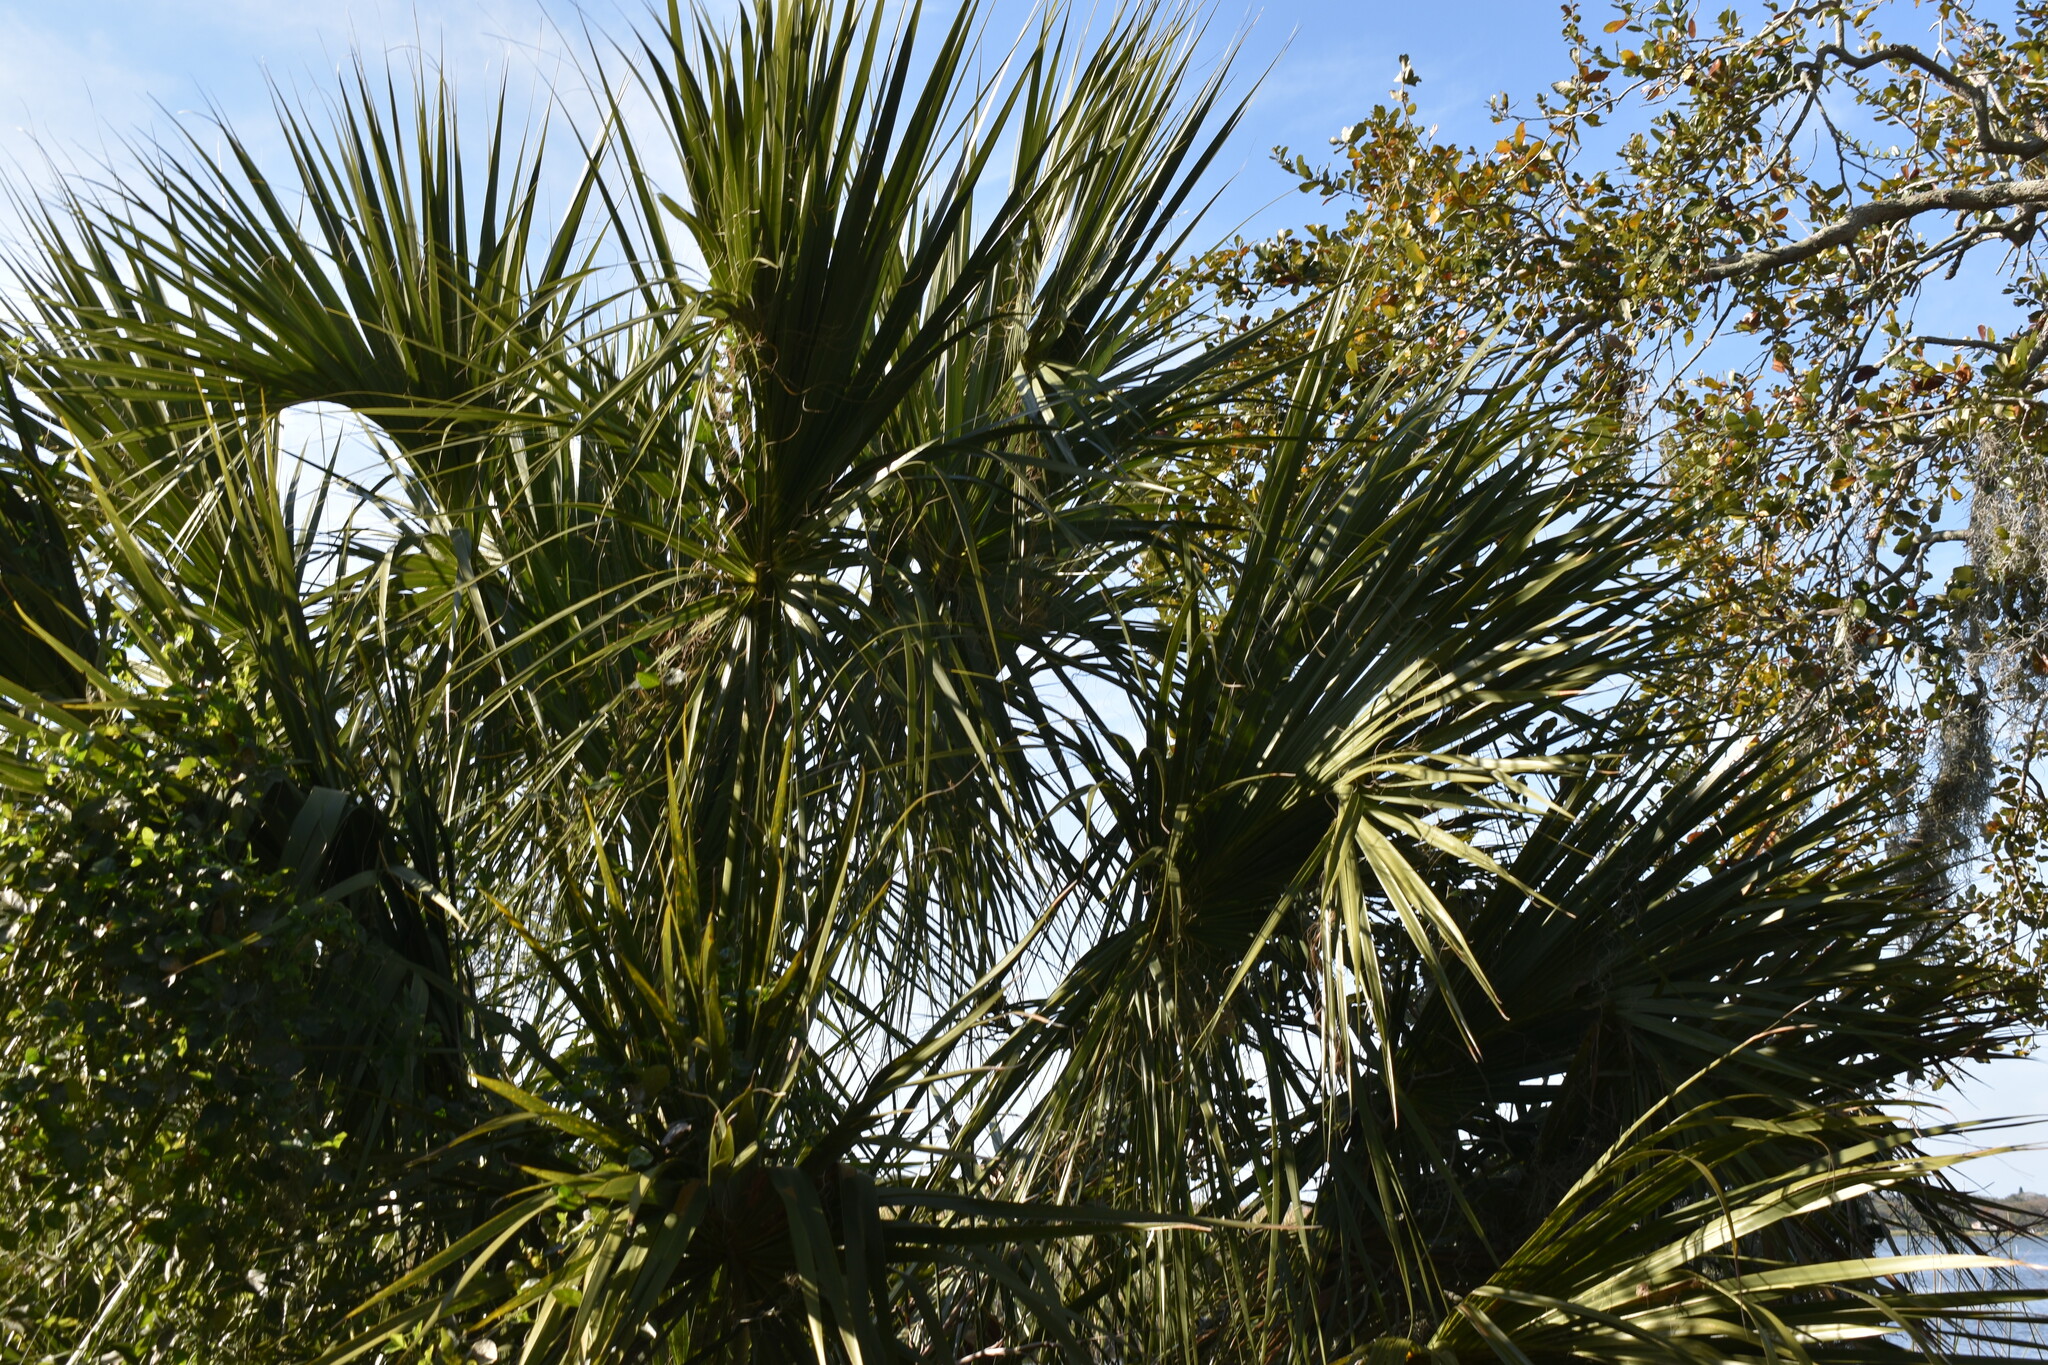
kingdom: Plantae
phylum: Tracheophyta
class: Liliopsida
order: Arecales
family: Arecaceae
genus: Sabal
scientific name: Sabal palmetto
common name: Blue palmetto
